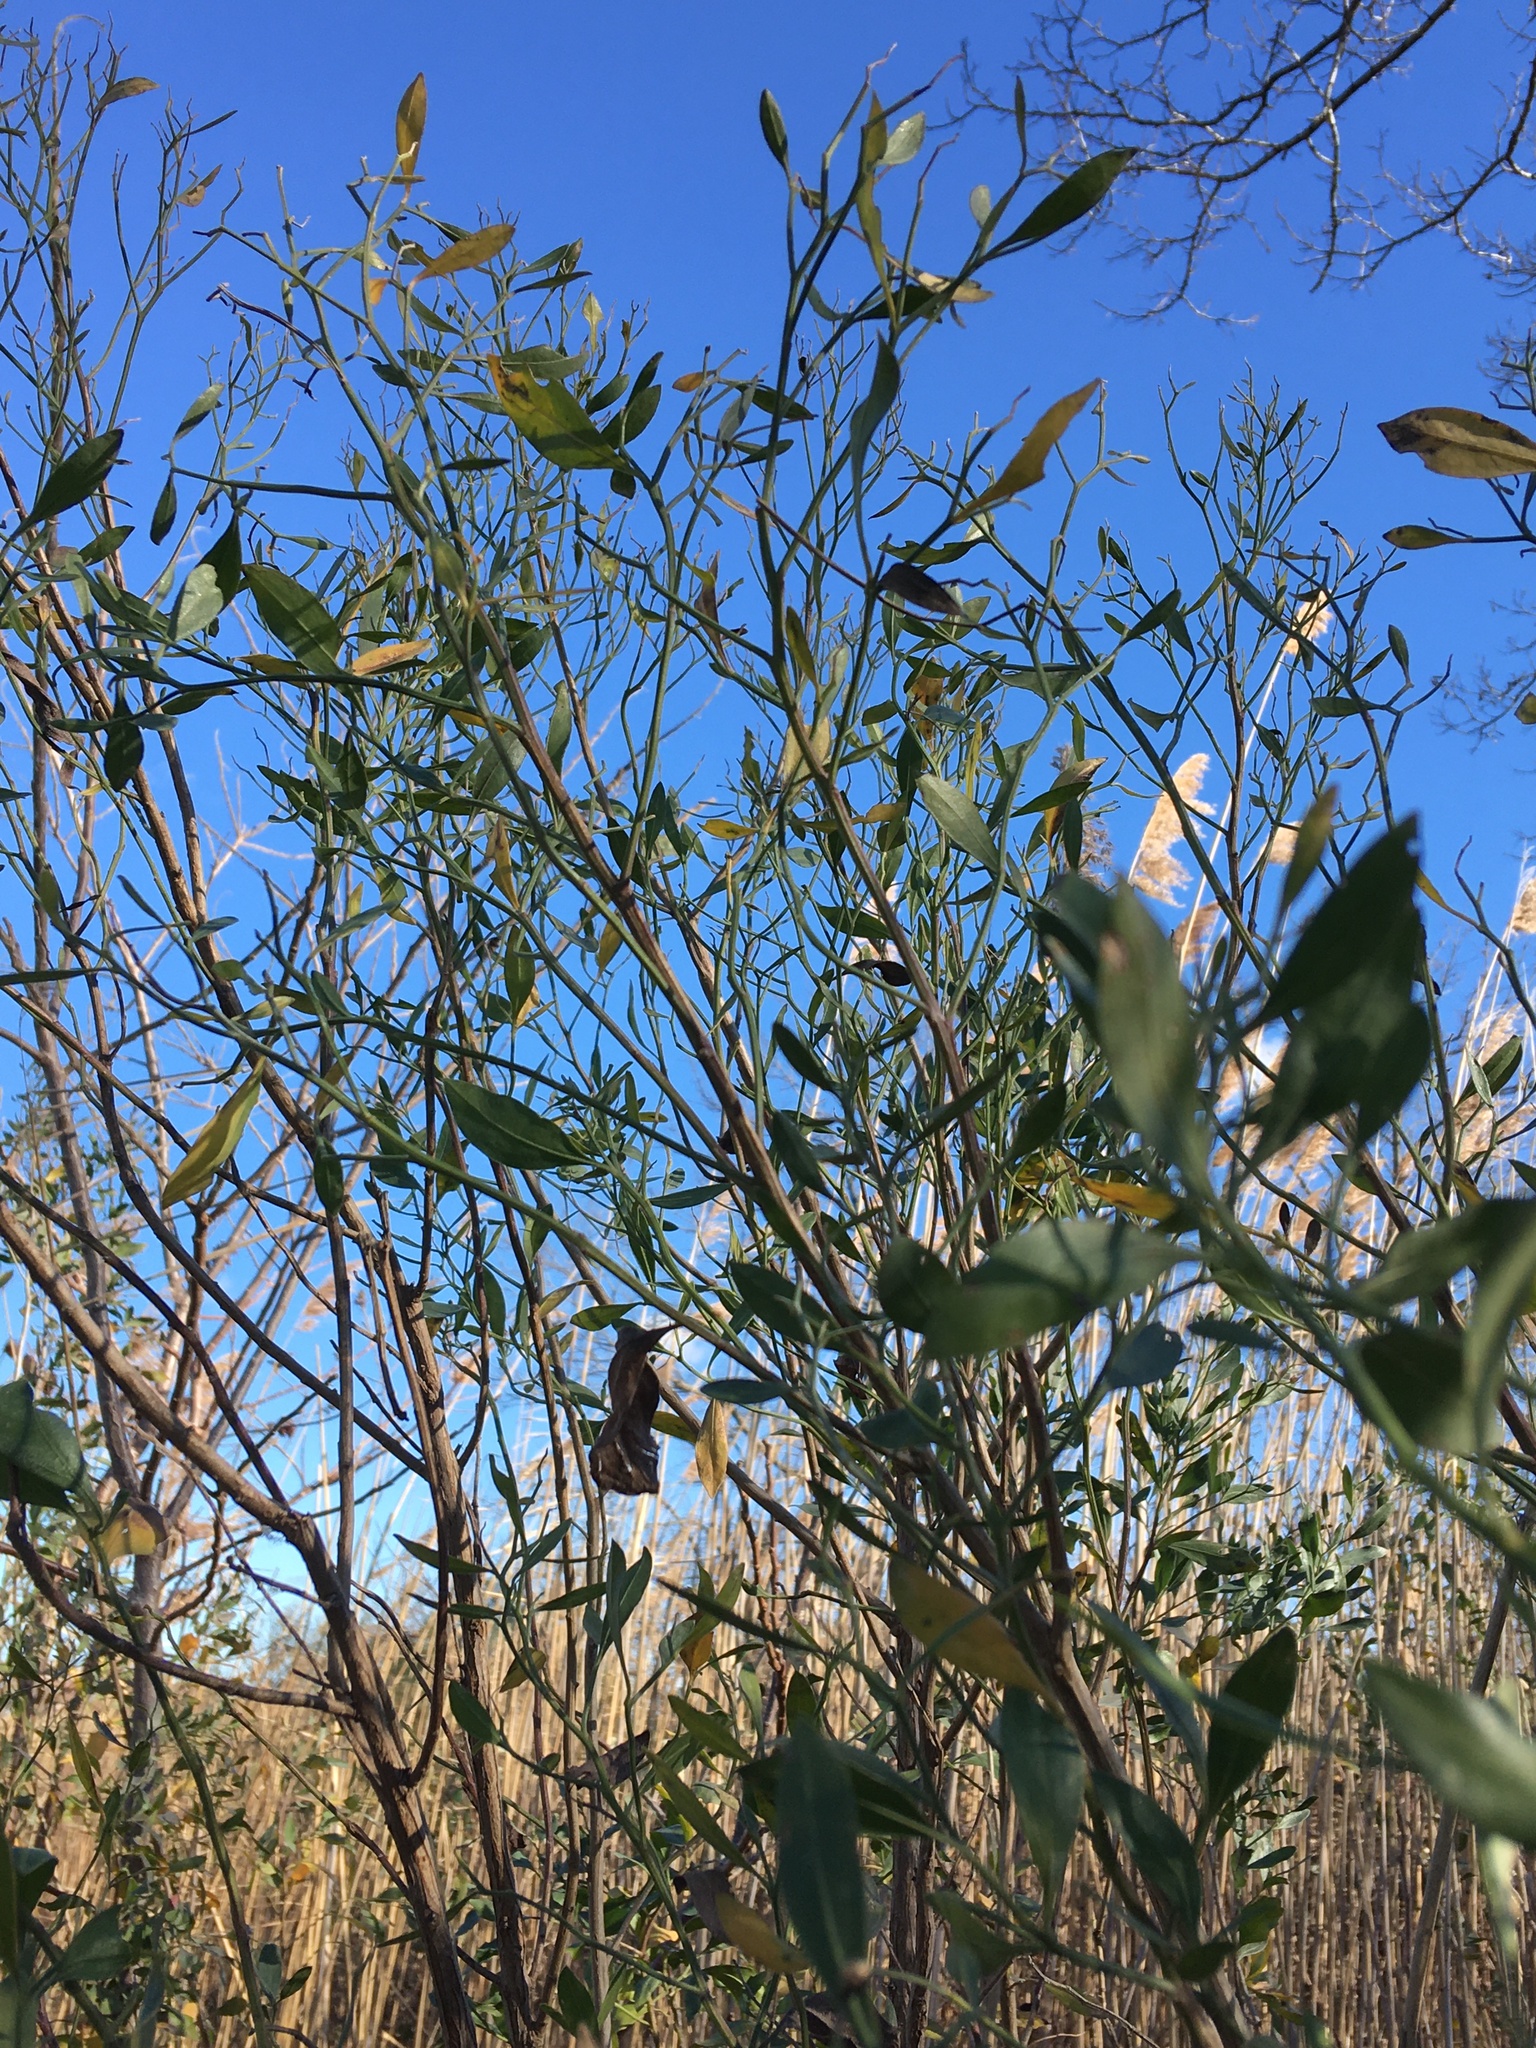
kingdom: Plantae
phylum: Tracheophyta
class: Magnoliopsida
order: Asterales
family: Asteraceae
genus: Baccharis
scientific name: Baccharis halimifolia
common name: Eastern baccharis
